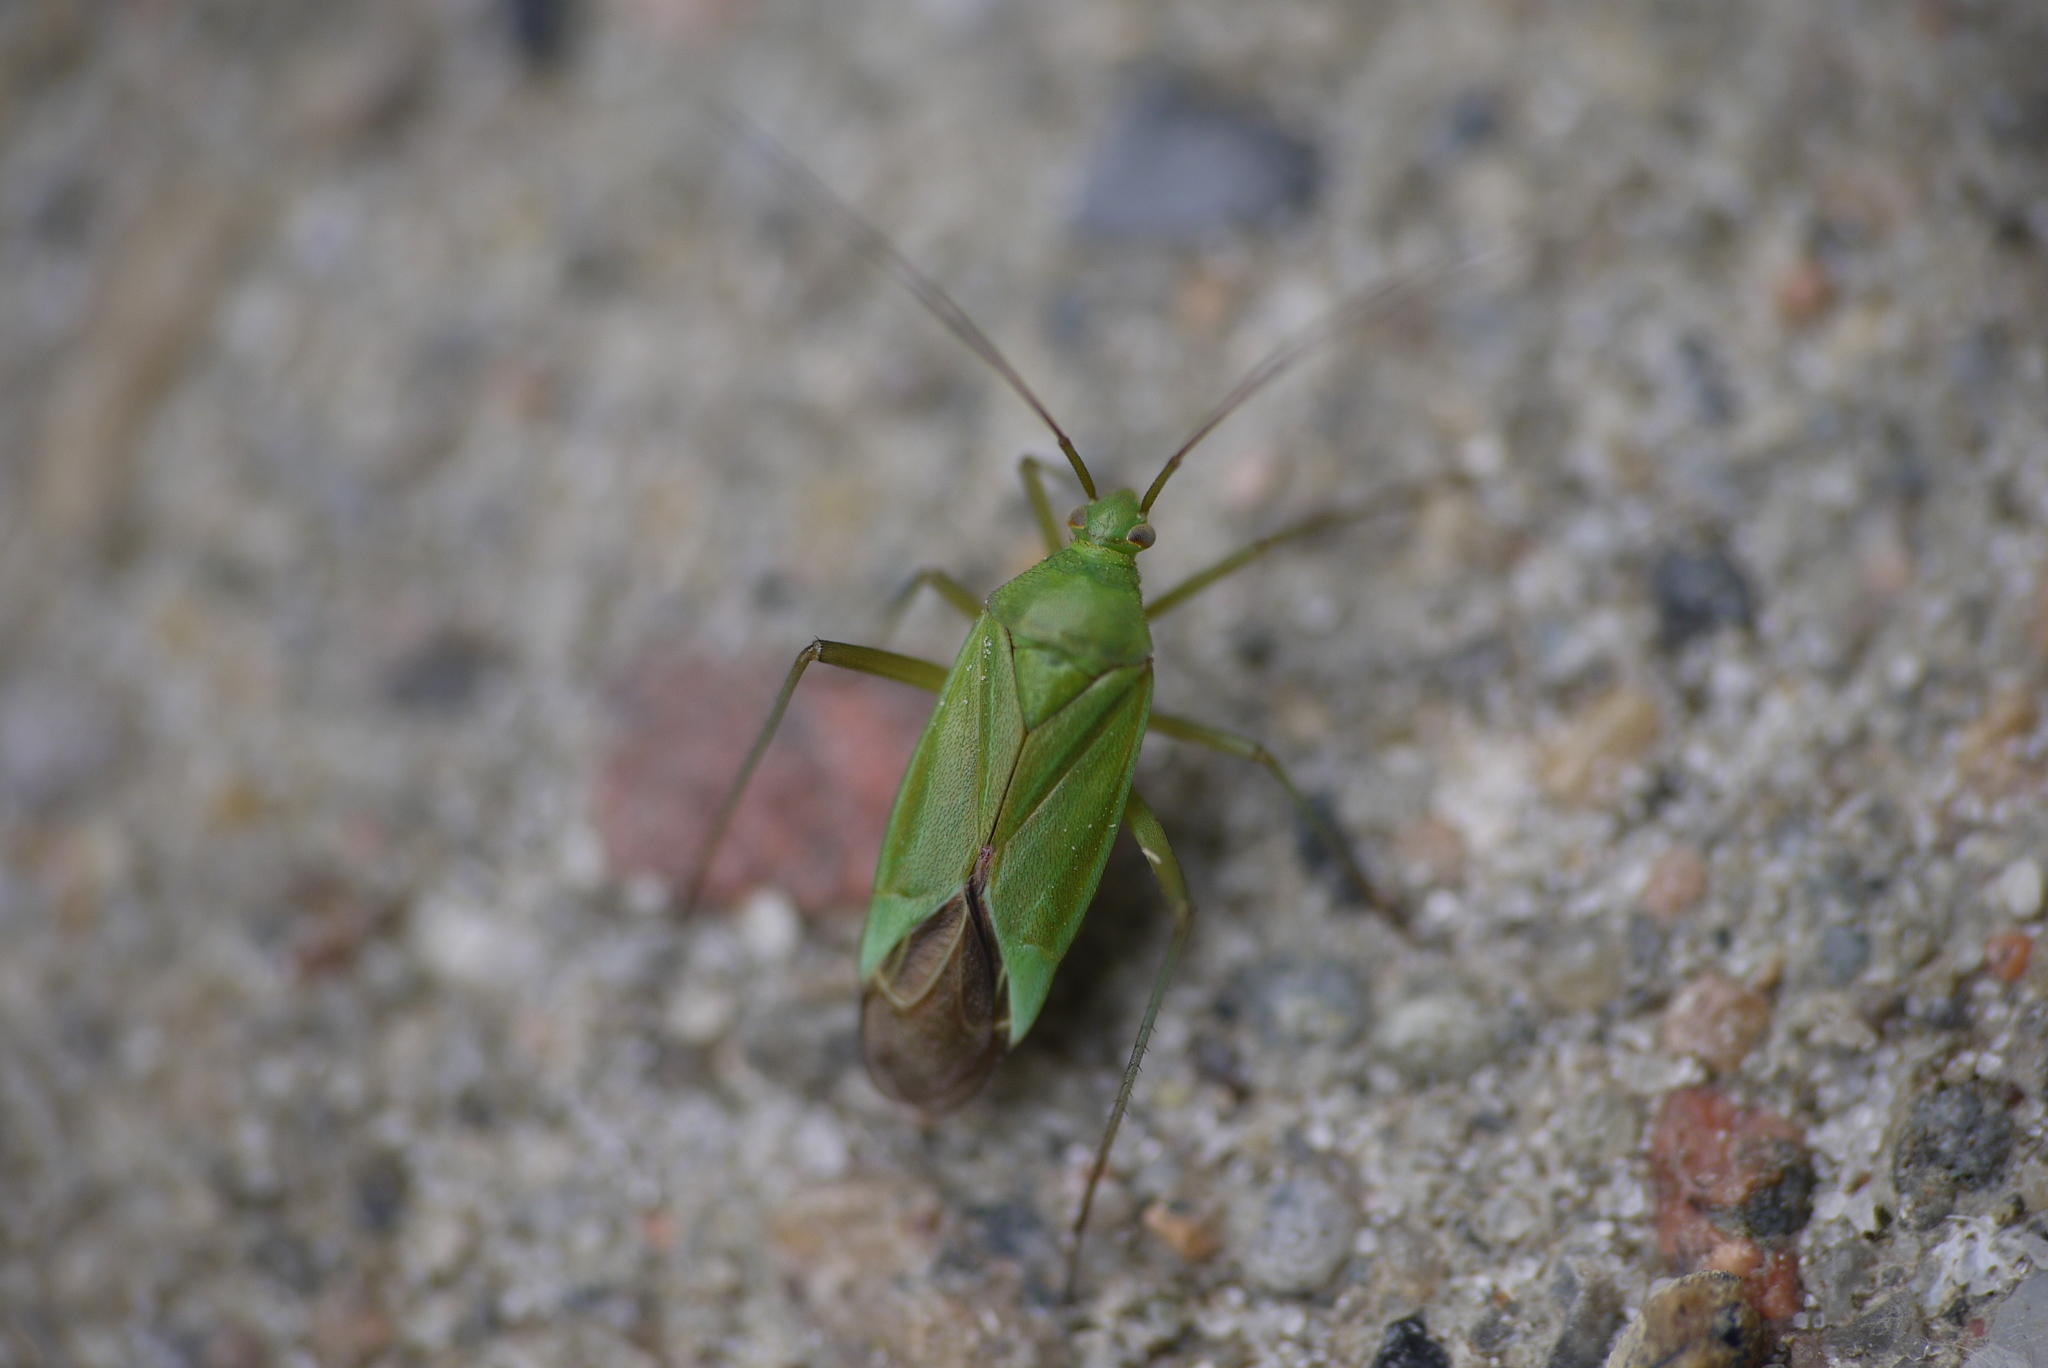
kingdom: Animalia
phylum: Arthropoda
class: Insecta
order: Hemiptera
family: Miridae
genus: Calocoris
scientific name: Calocoris affinis
